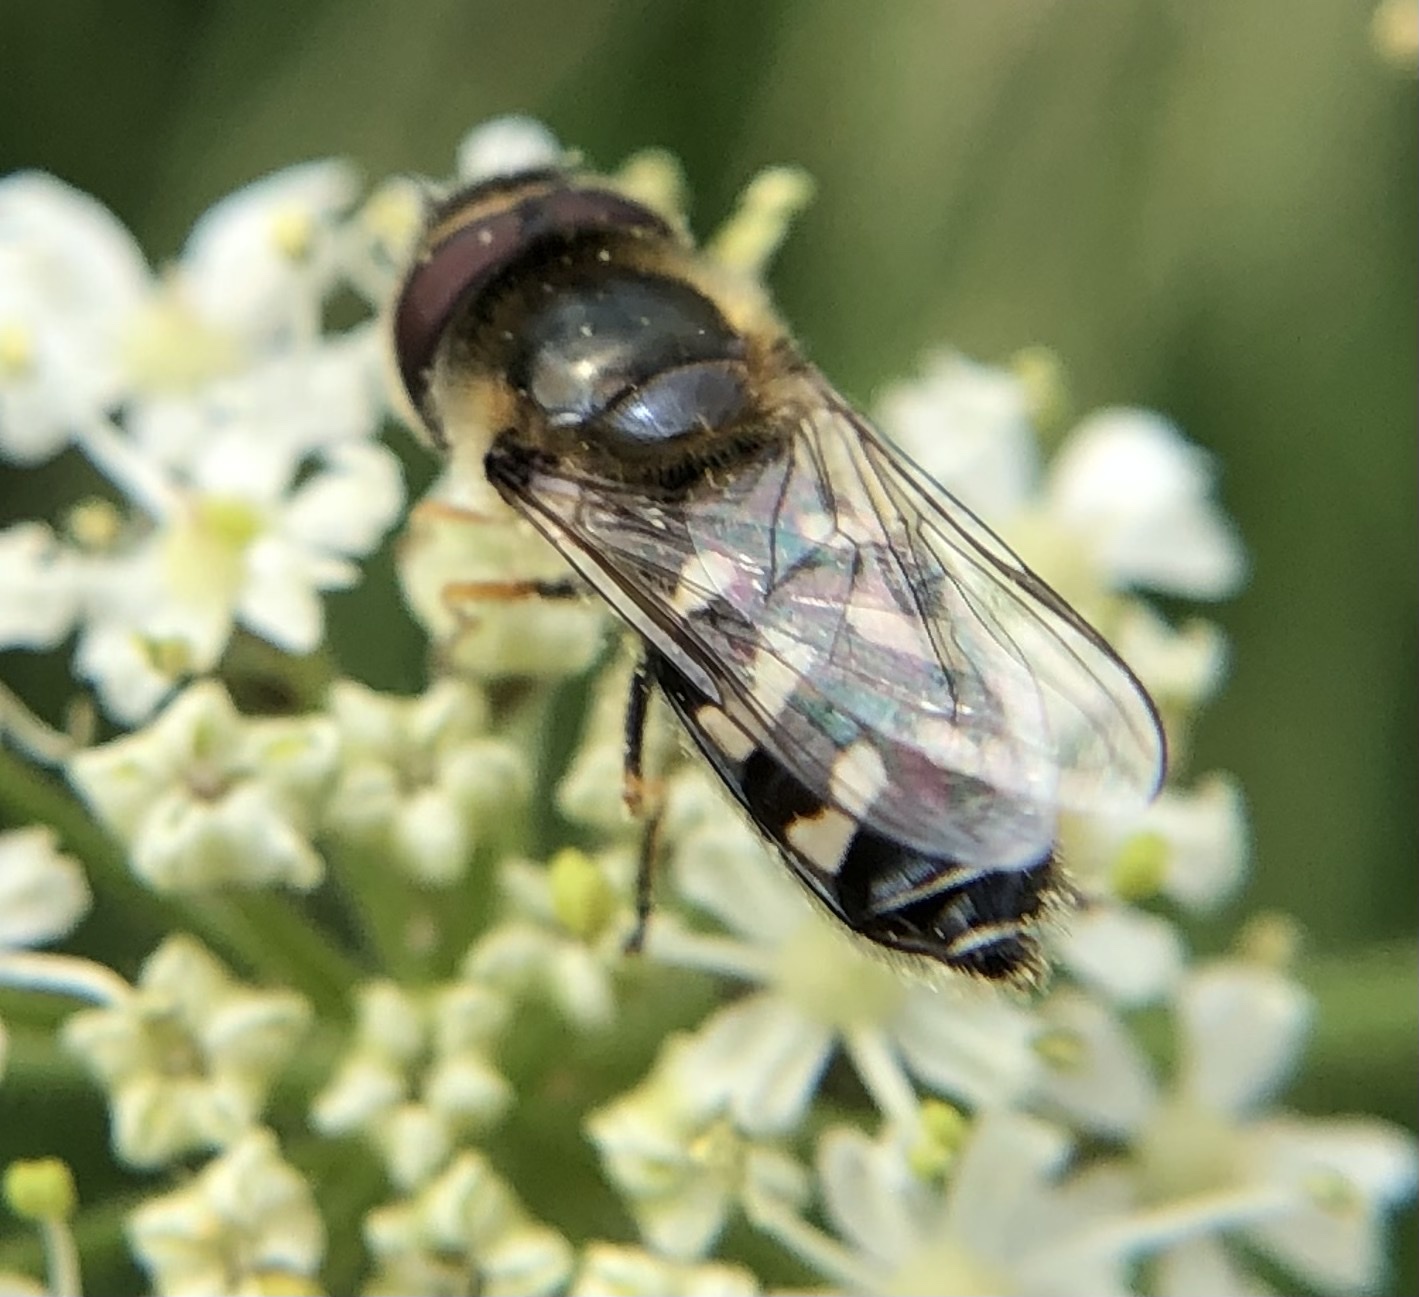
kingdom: Animalia
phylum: Arthropoda
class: Insecta
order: Diptera
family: Syrphidae
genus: Scaeva
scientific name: Scaeva pyrastri
